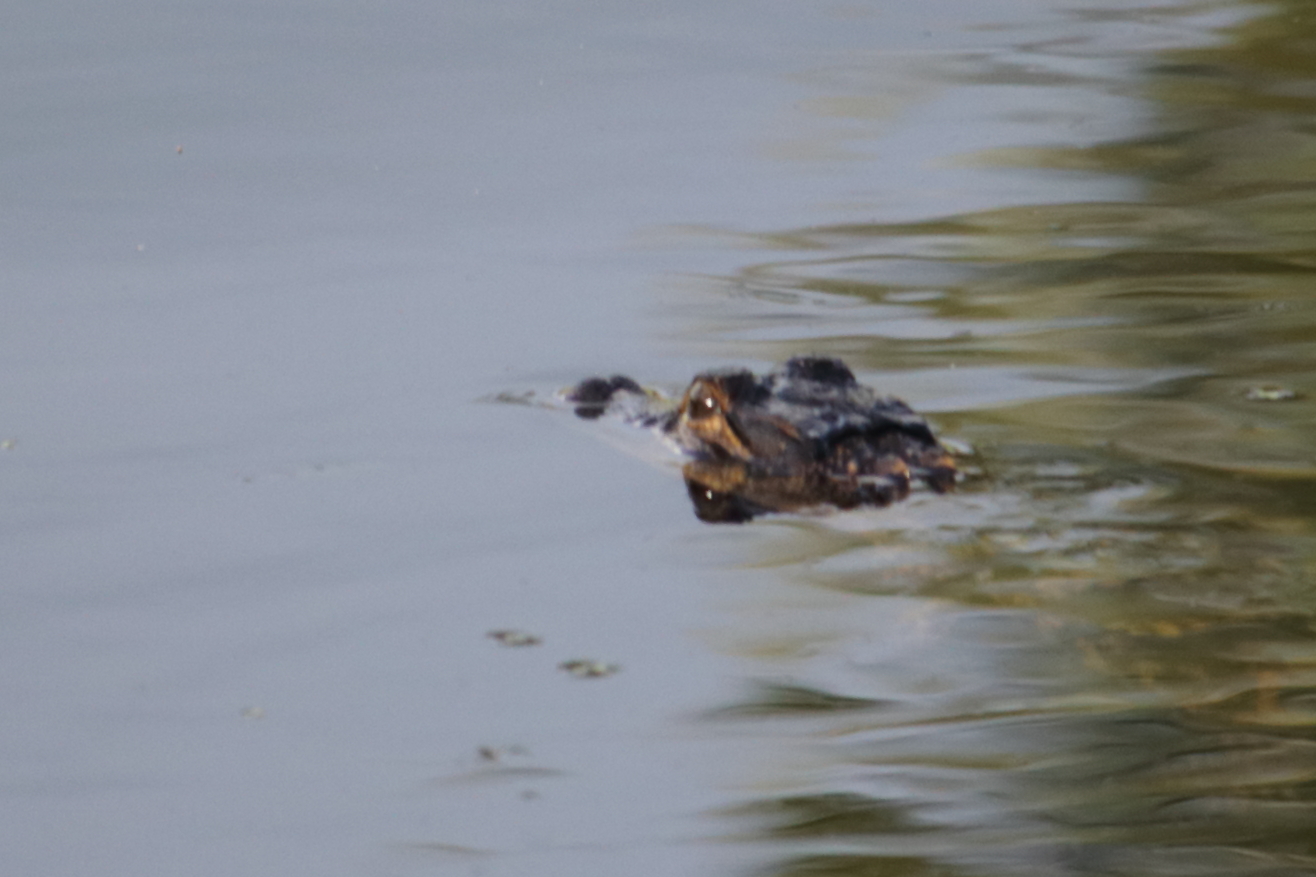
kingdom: Animalia
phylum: Chordata
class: Crocodylia
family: Alligatoridae
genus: Alligator
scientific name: Alligator mississippiensis
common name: American alligator
